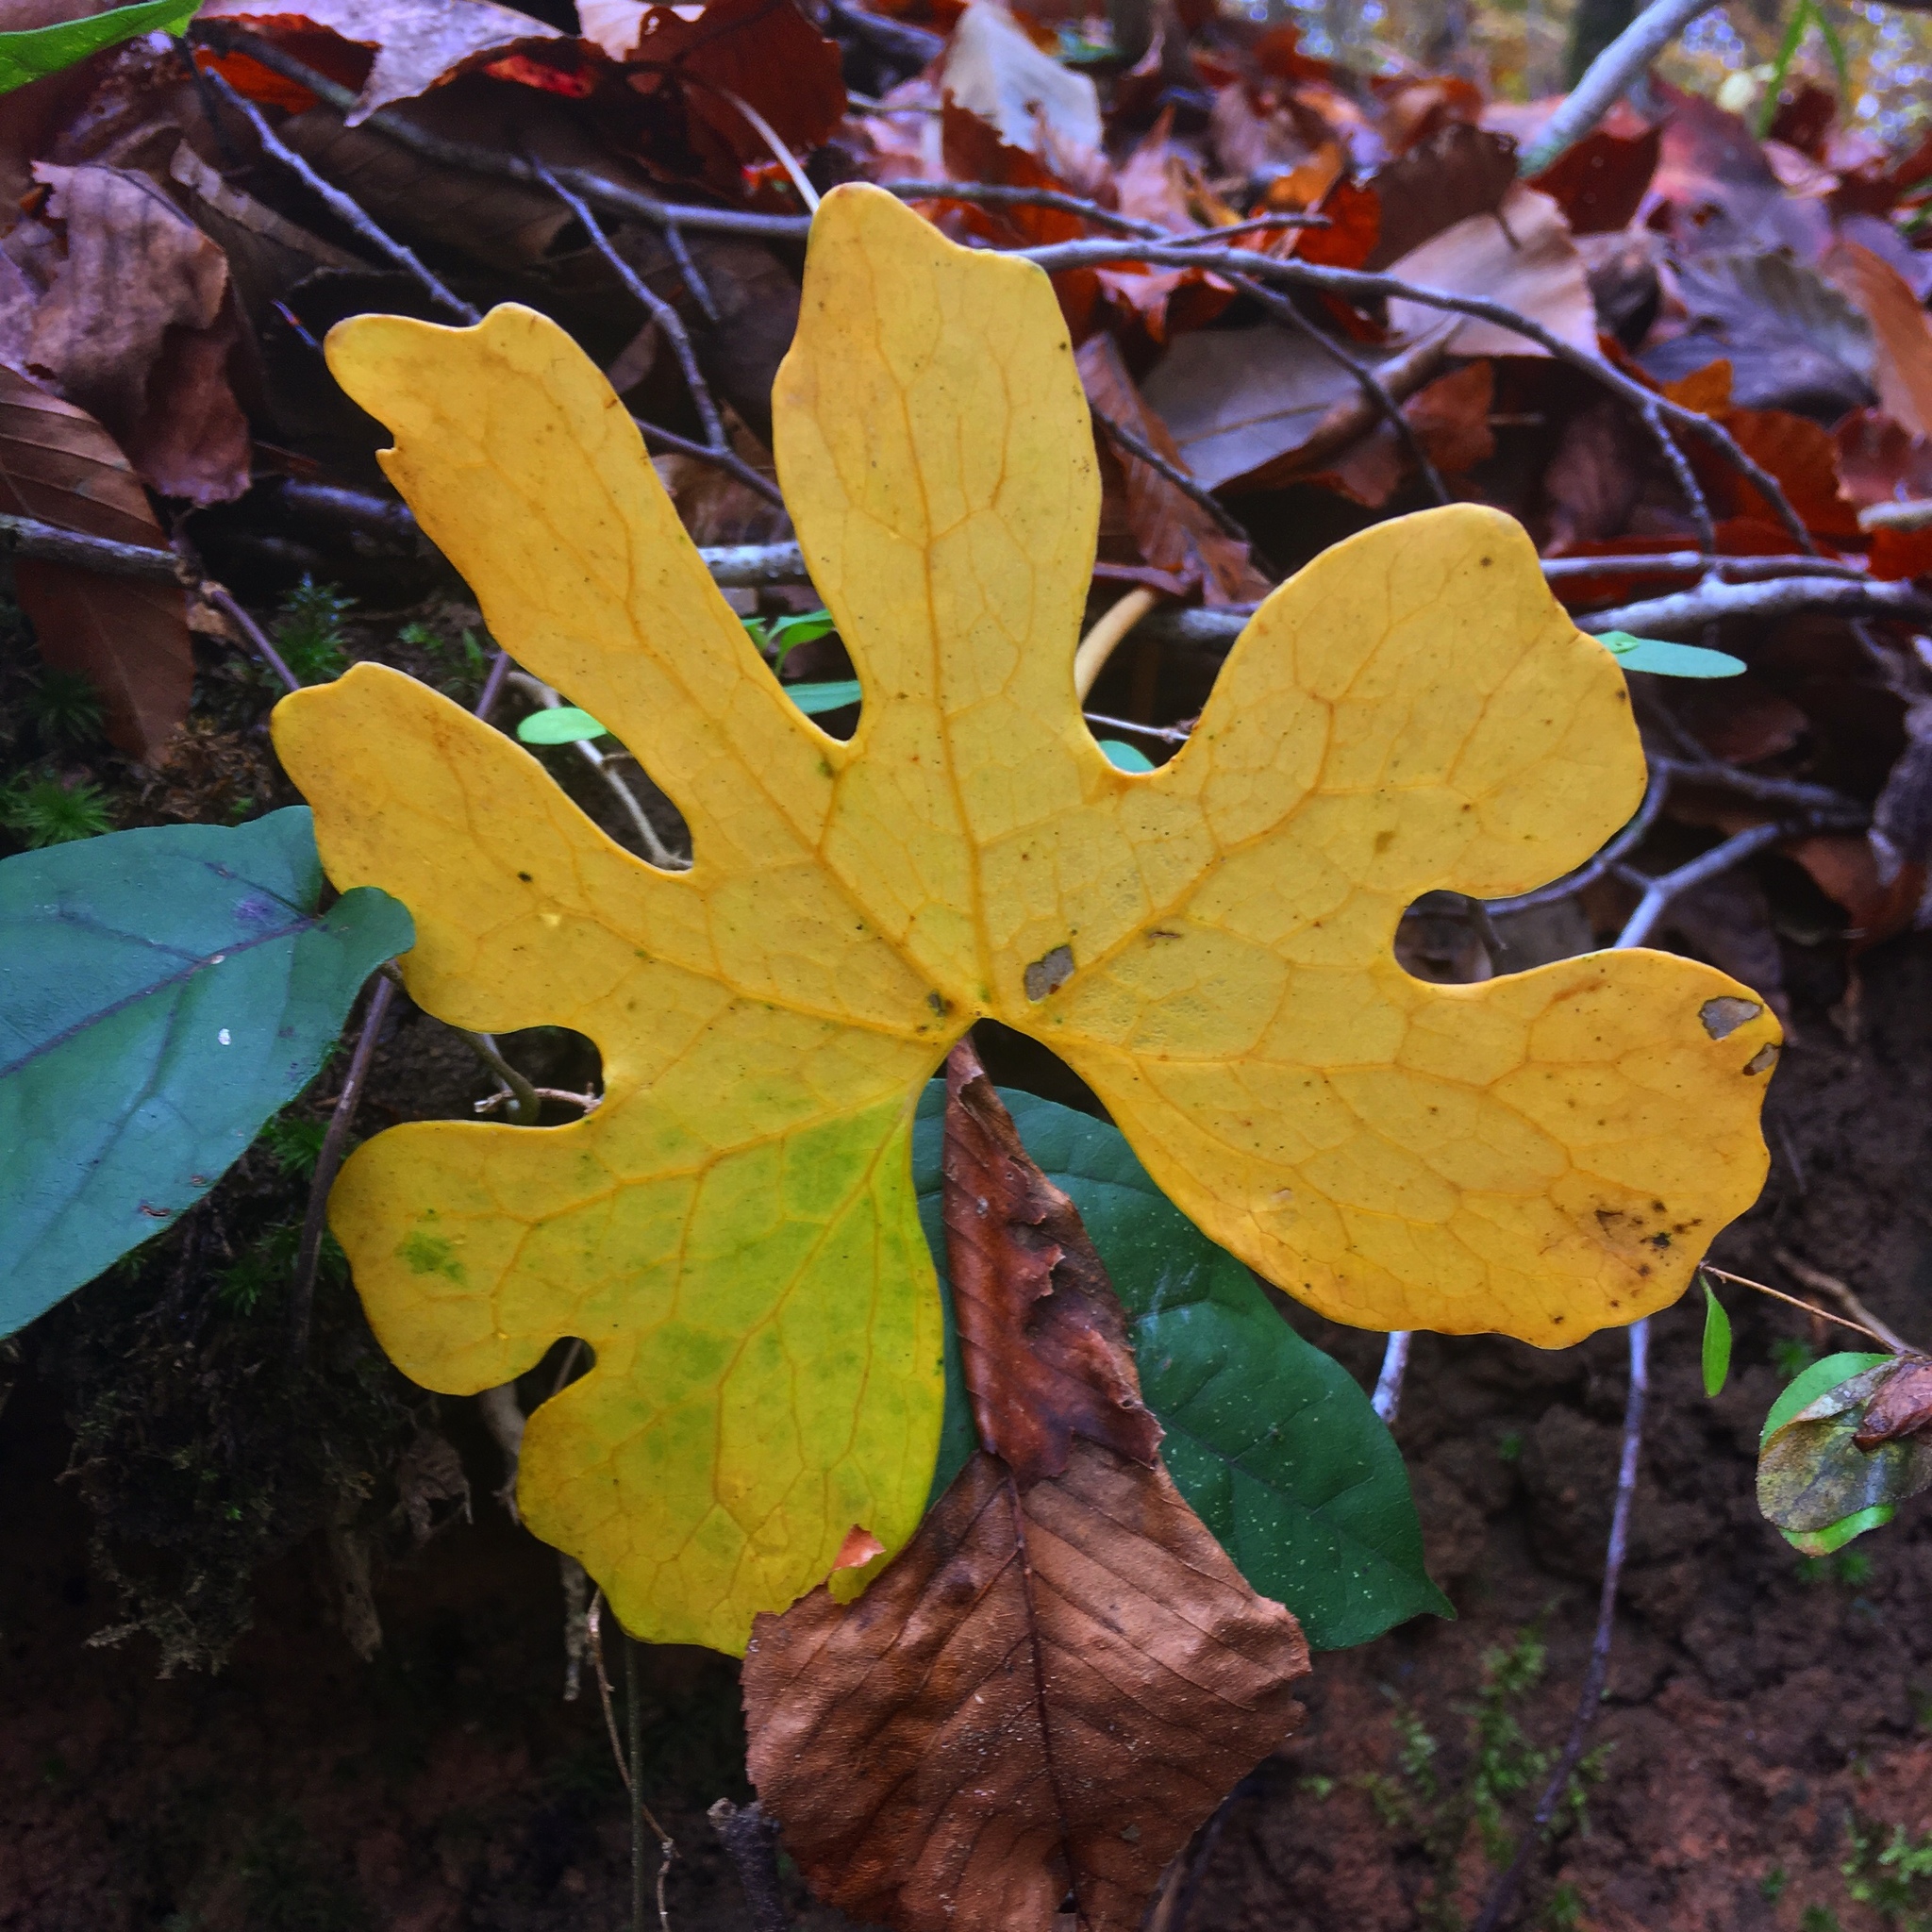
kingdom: Plantae
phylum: Tracheophyta
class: Magnoliopsida
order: Ranunculales
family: Papaveraceae
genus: Sanguinaria
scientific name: Sanguinaria canadensis
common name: Bloodroot
